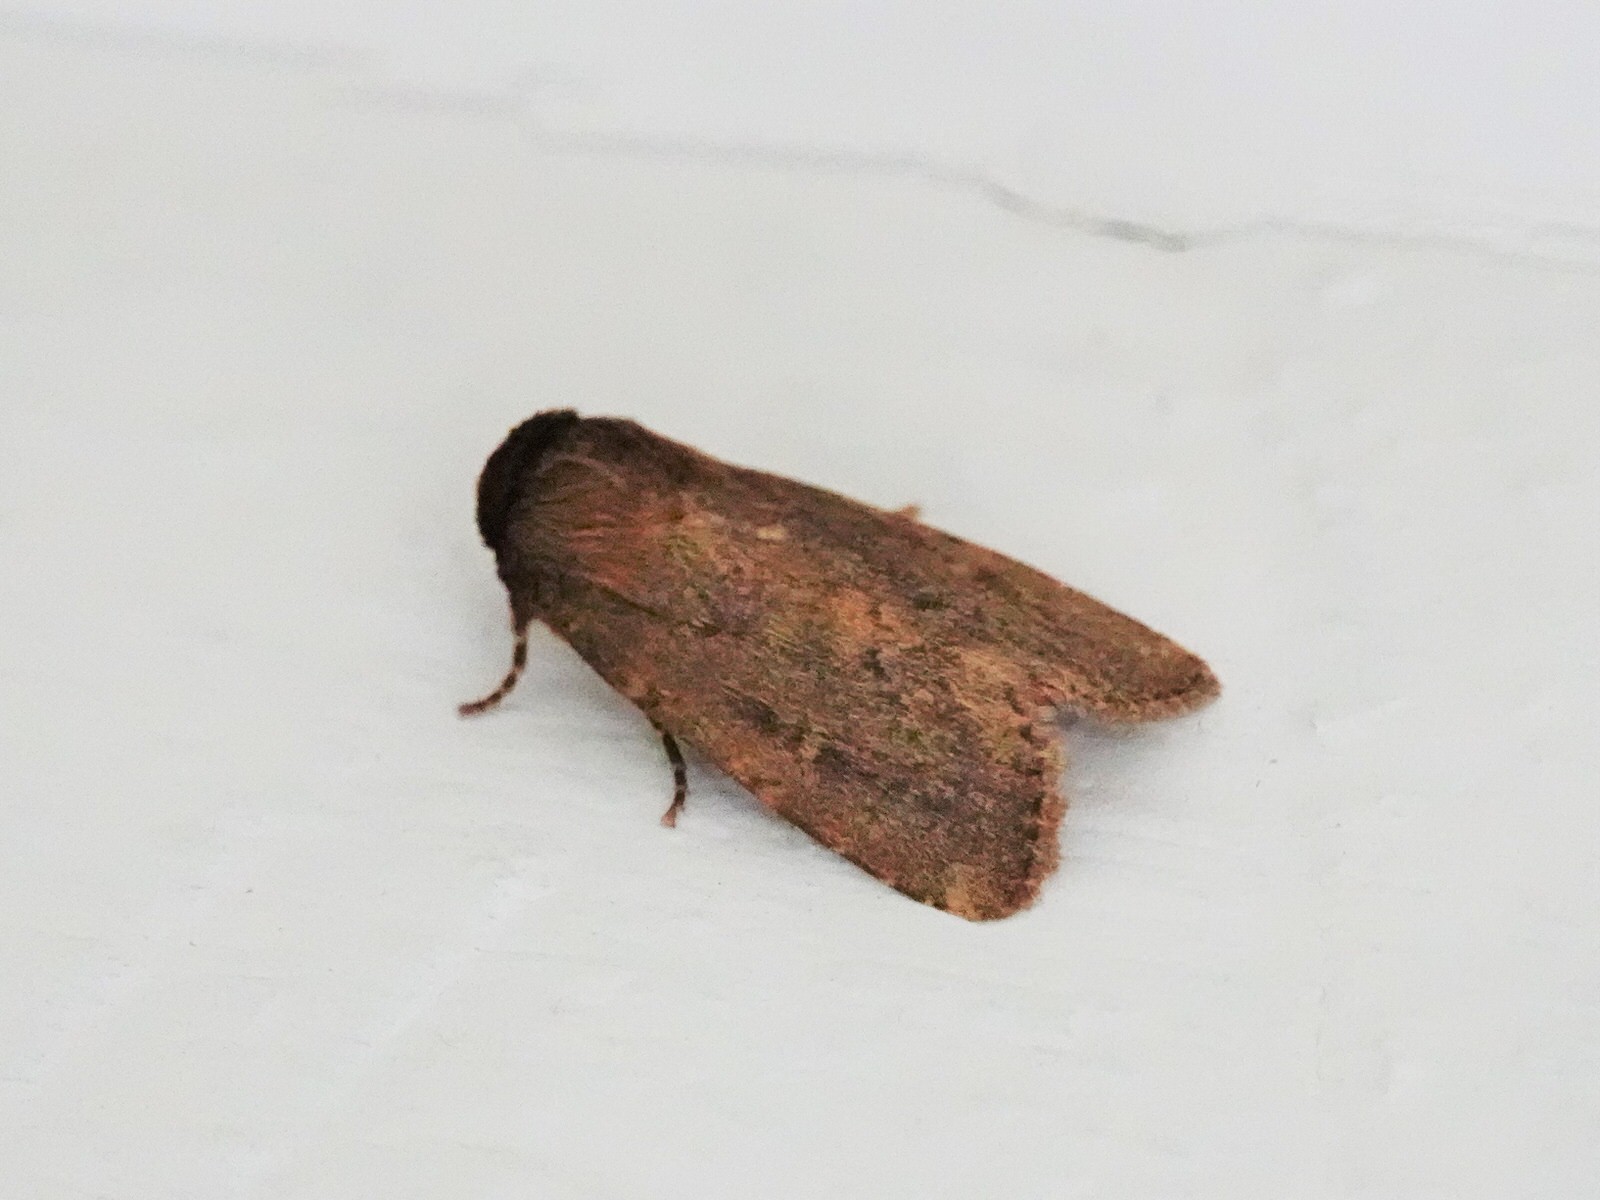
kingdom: Animalia
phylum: Arthropoda
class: Insecta
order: Lepidoptera
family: Noctuidae
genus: Bityla
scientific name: Bityla defigurata
